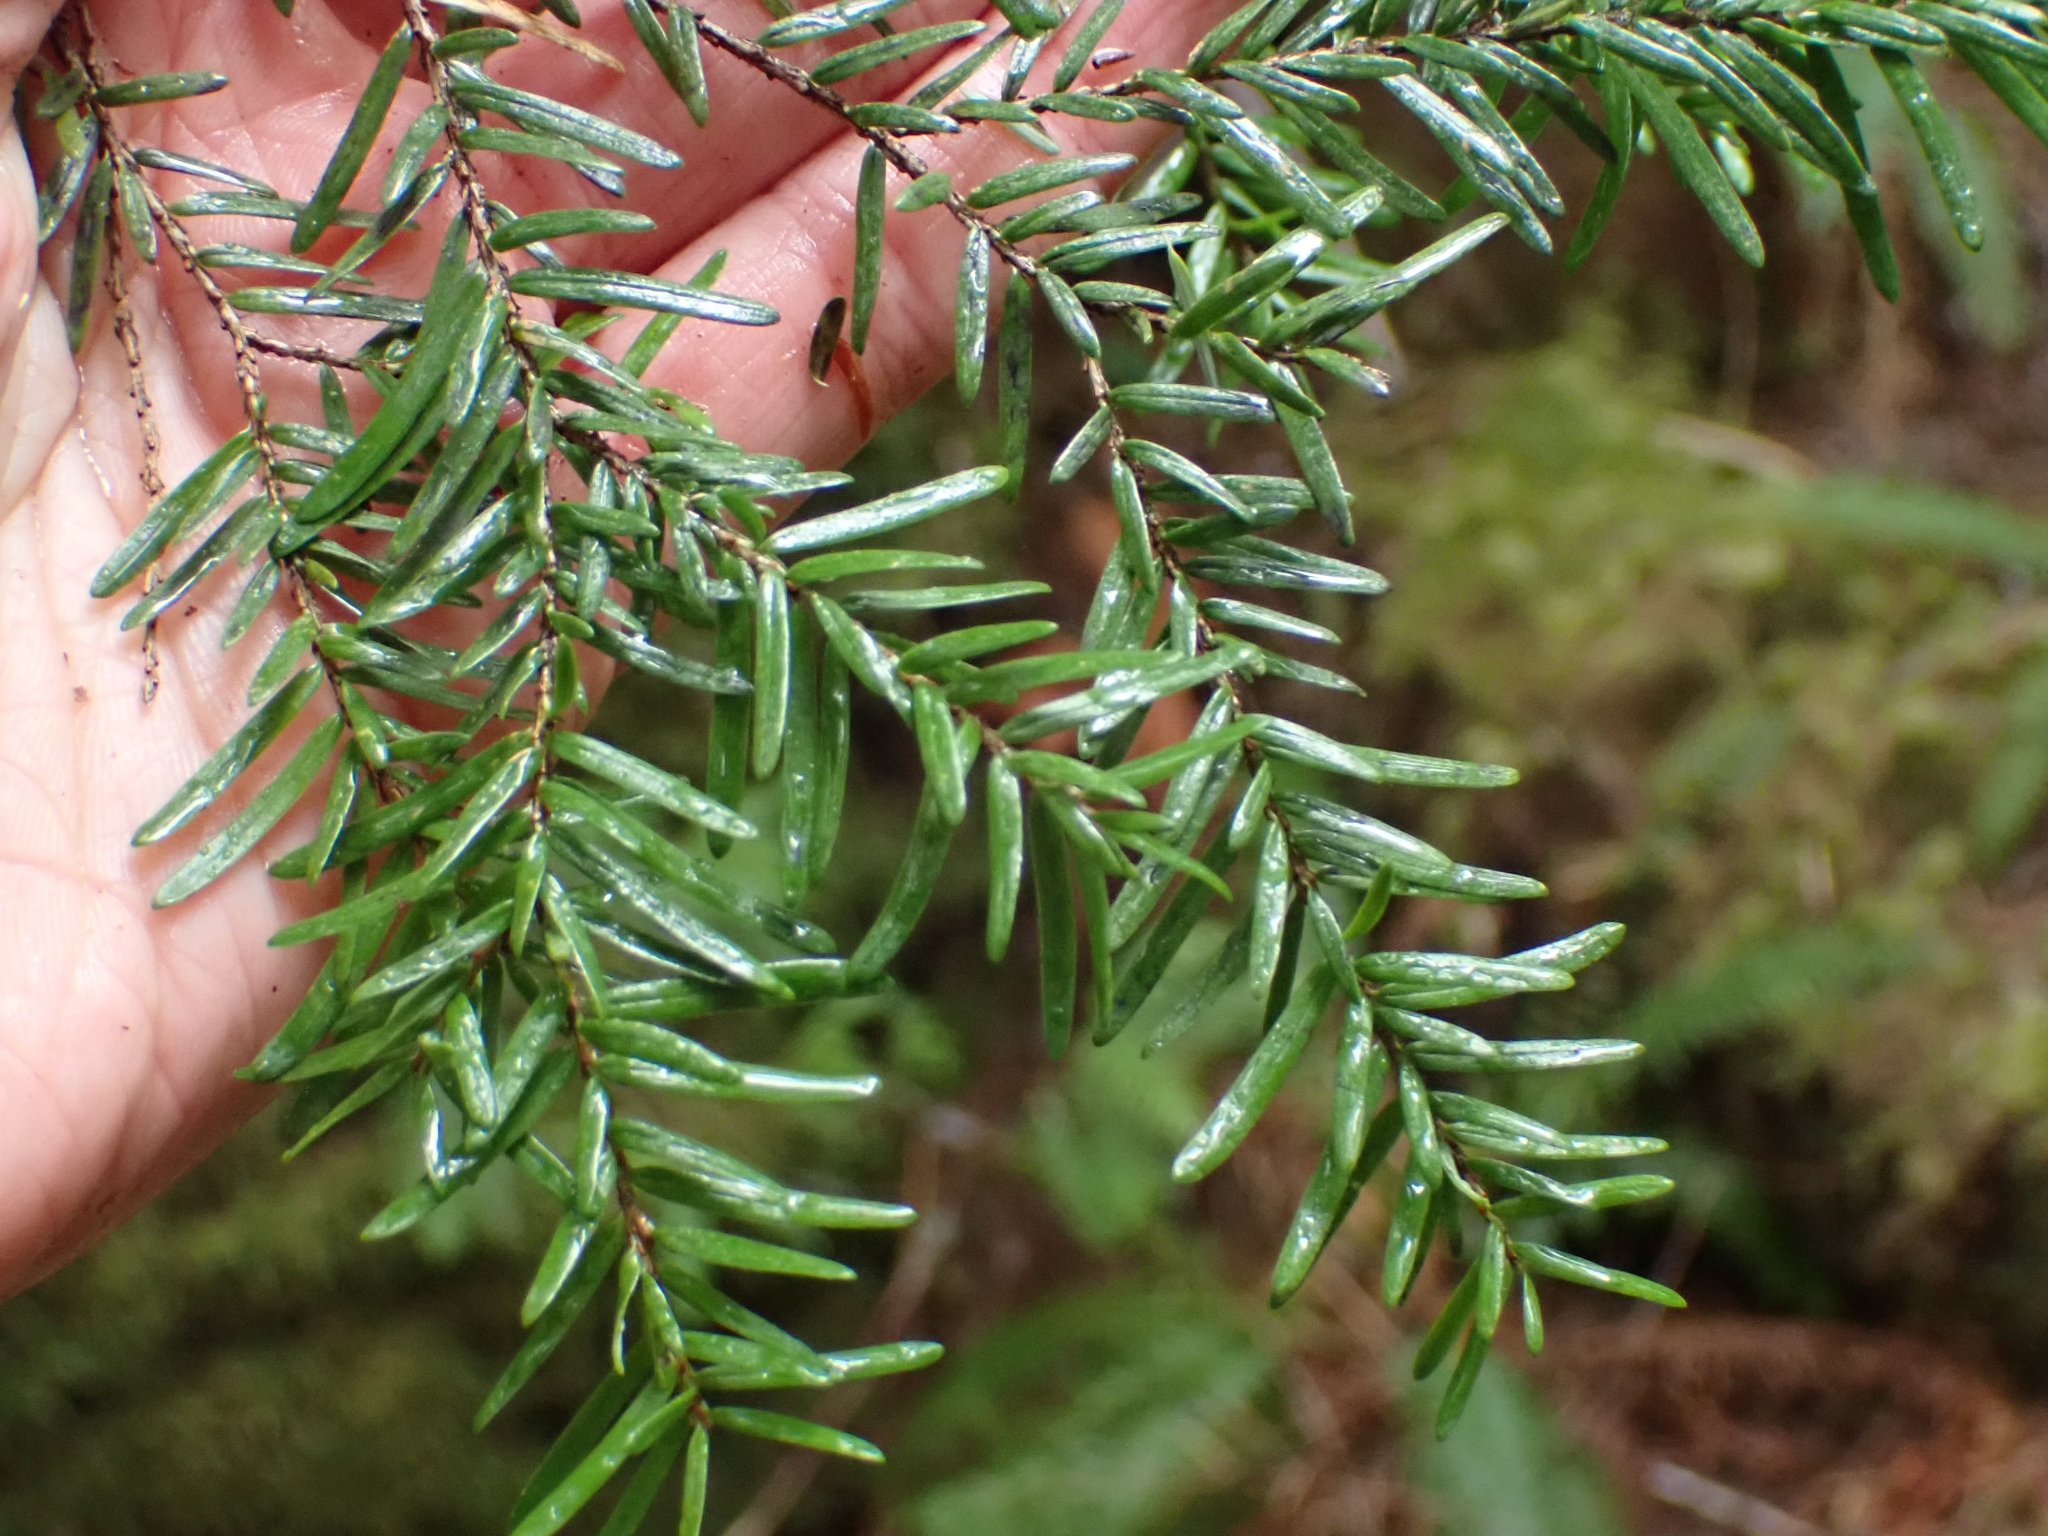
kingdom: Plantae
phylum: Tracheophyta
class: Pinopsida
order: Pinales
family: Pinaceae
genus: Tsuga
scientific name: Tsuga heterophylla
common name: Western hemlock
